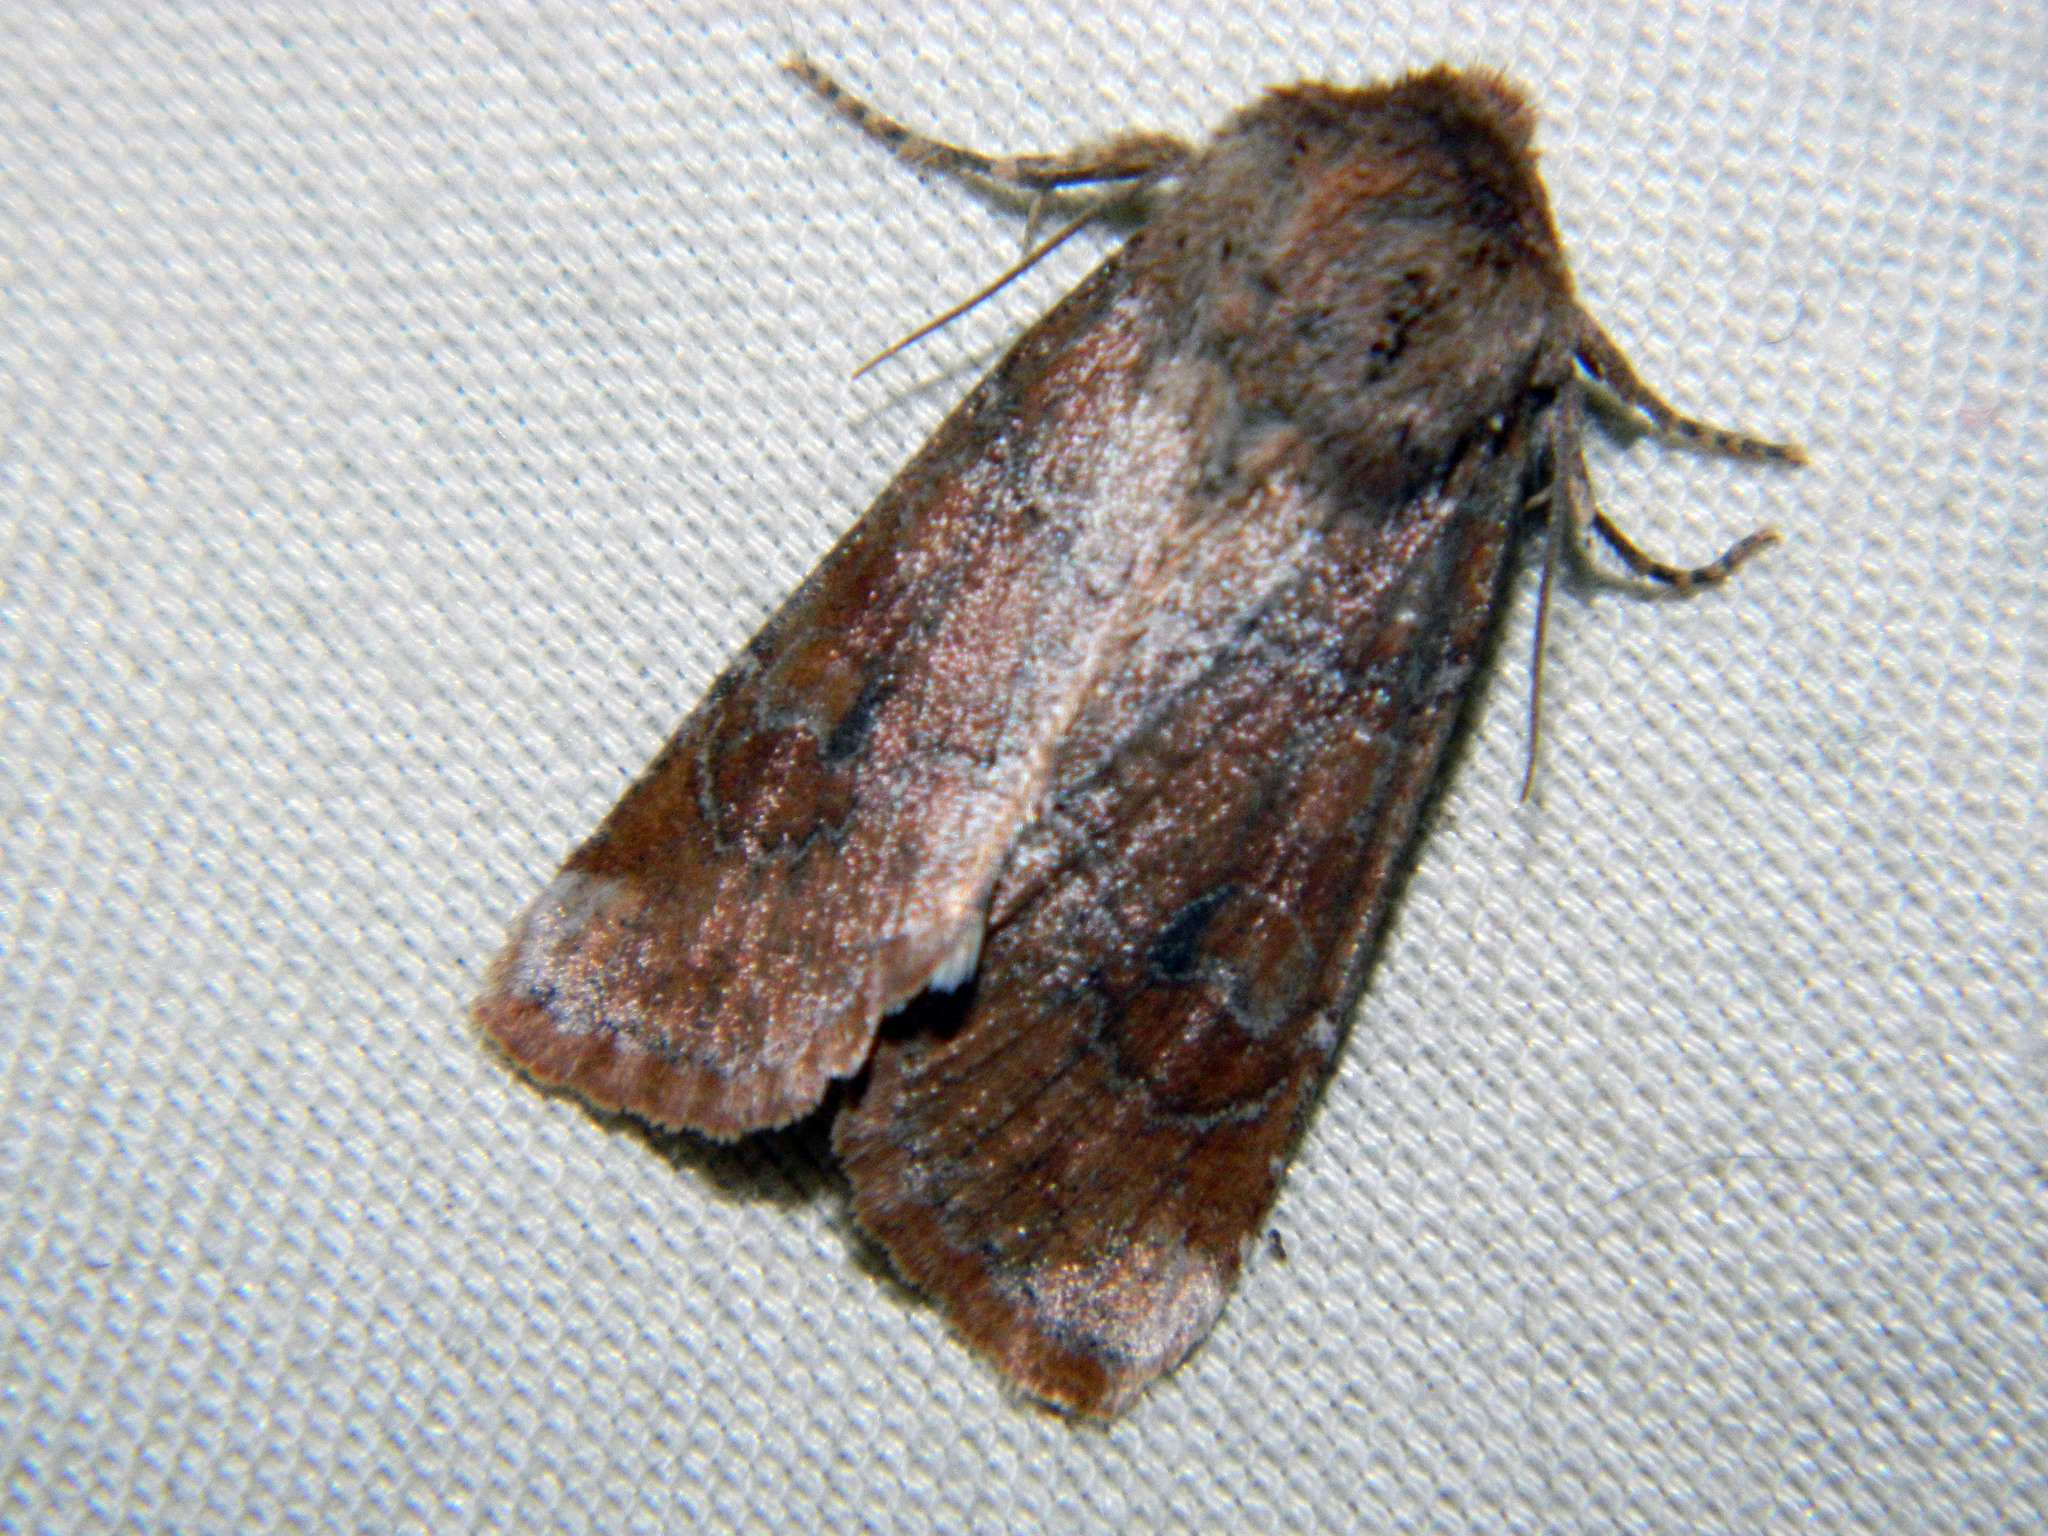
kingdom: Animalia
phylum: Arthropoda
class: Insecta
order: Lepidoptera
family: Noctuidae
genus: Crocigrapha
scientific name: Crocigrapha normani
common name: Norman's quaker
